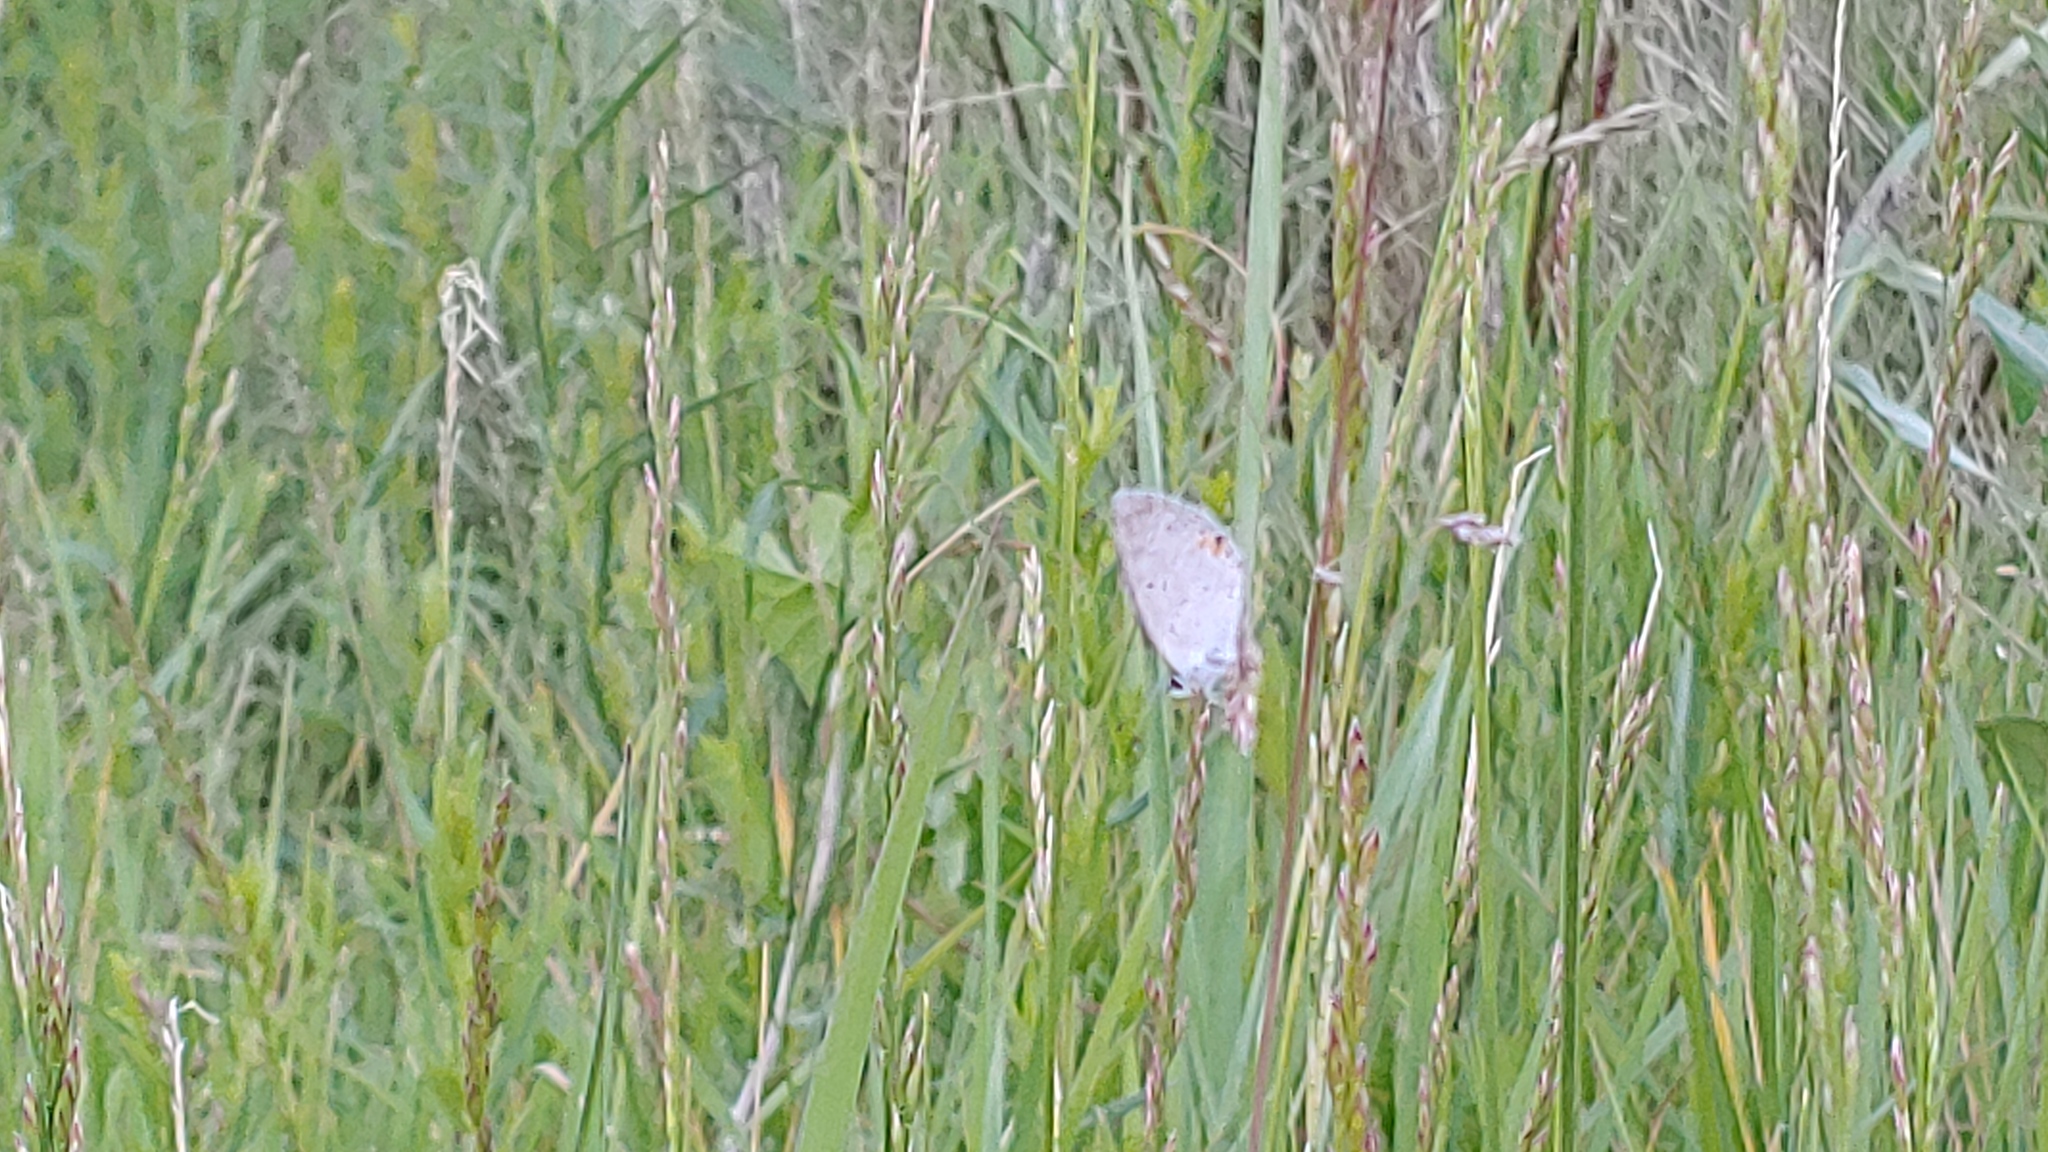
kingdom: Animalia
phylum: Arthropoda
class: Insecta
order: Lepidoptera
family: Lycaenidae
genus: Elkalyce
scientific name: Elkalyce comyntas
